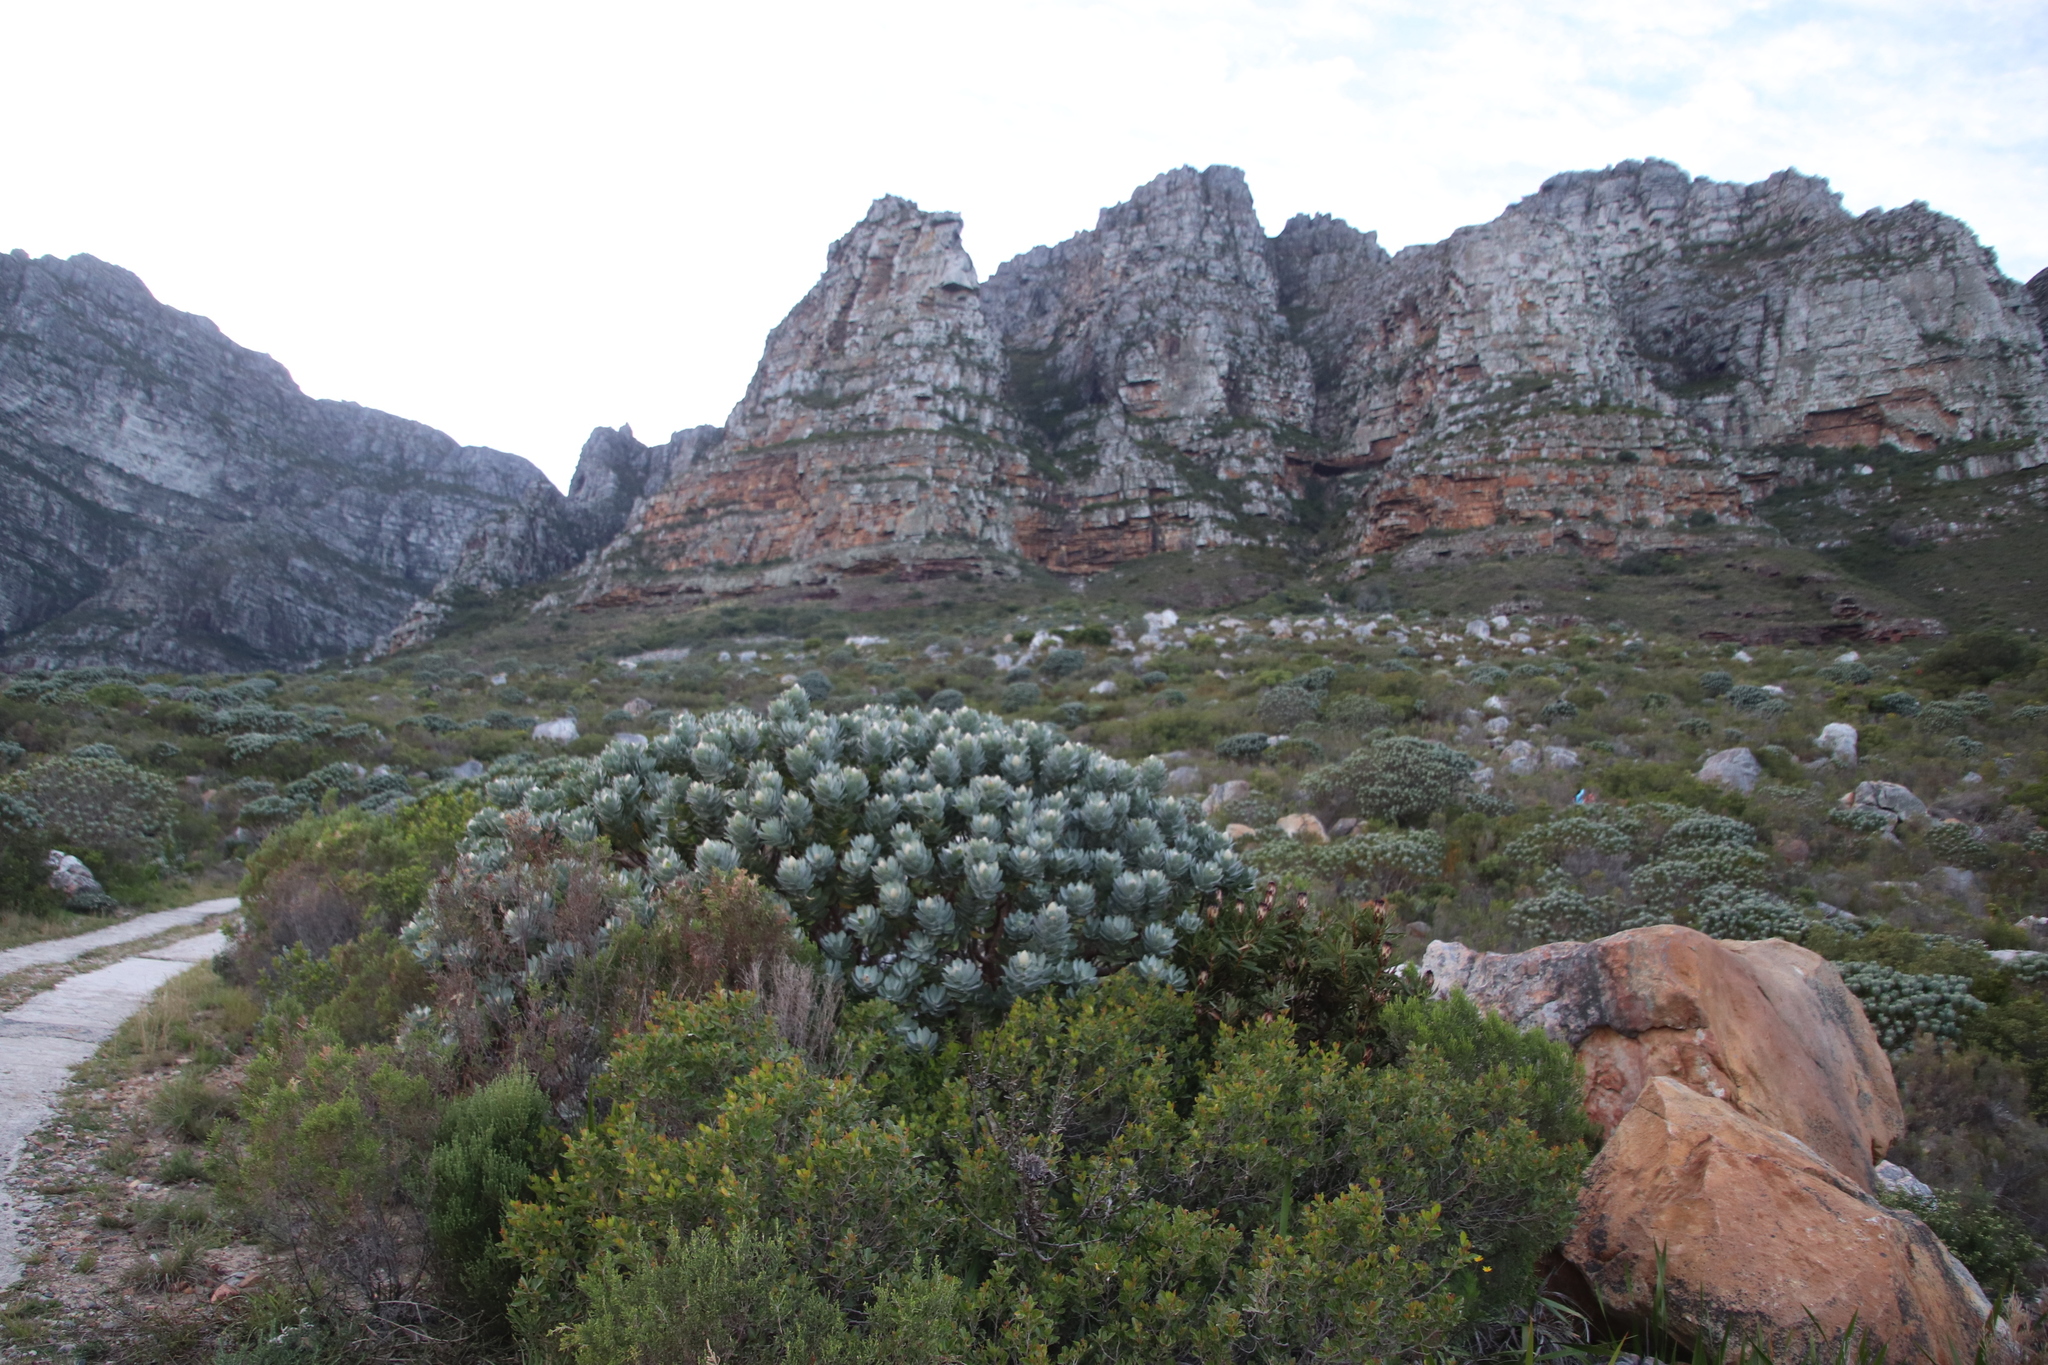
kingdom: Plantae
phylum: Tracheophyta
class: Magnoliopsida
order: Proteales
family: Proteaceae
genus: Leucospermum
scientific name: Leucospermum conocarpodendron
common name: Tree pincushion
